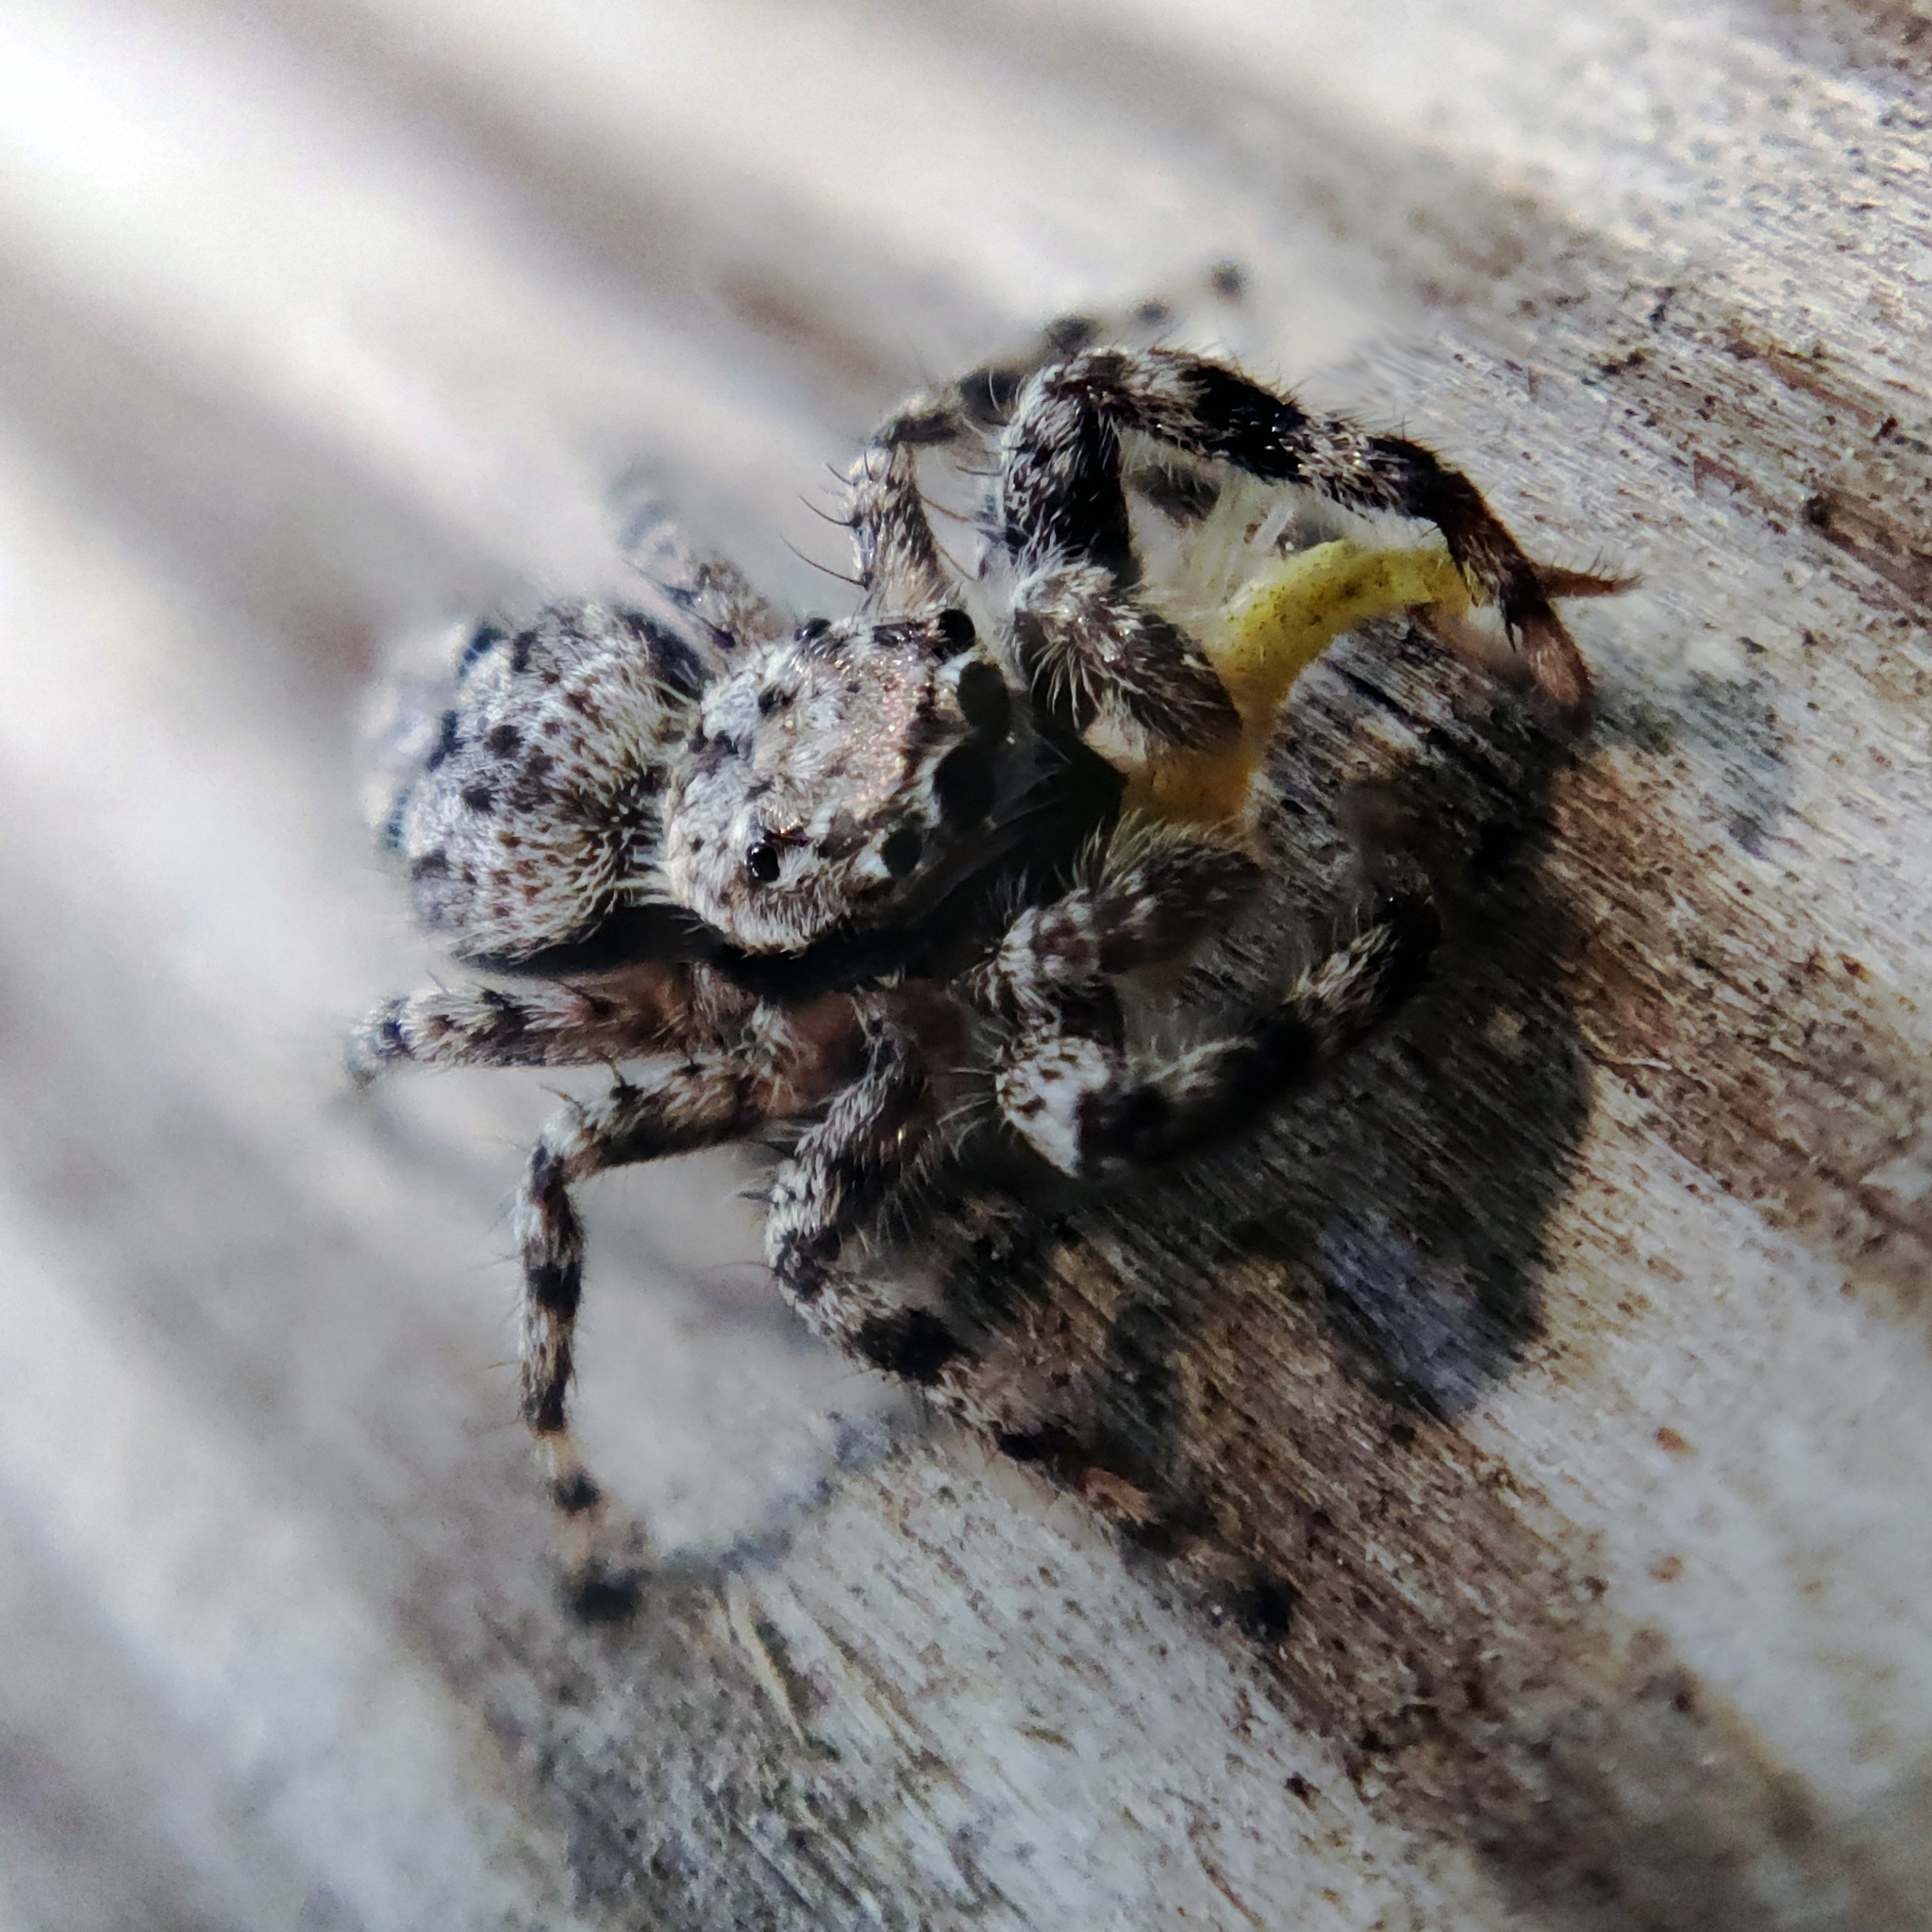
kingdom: Animalia
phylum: Arthropoda
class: Arachnida
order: Araneae
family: Salticidae
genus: Platycryptus
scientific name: Platycryptus undatus
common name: Tan jumping spider
